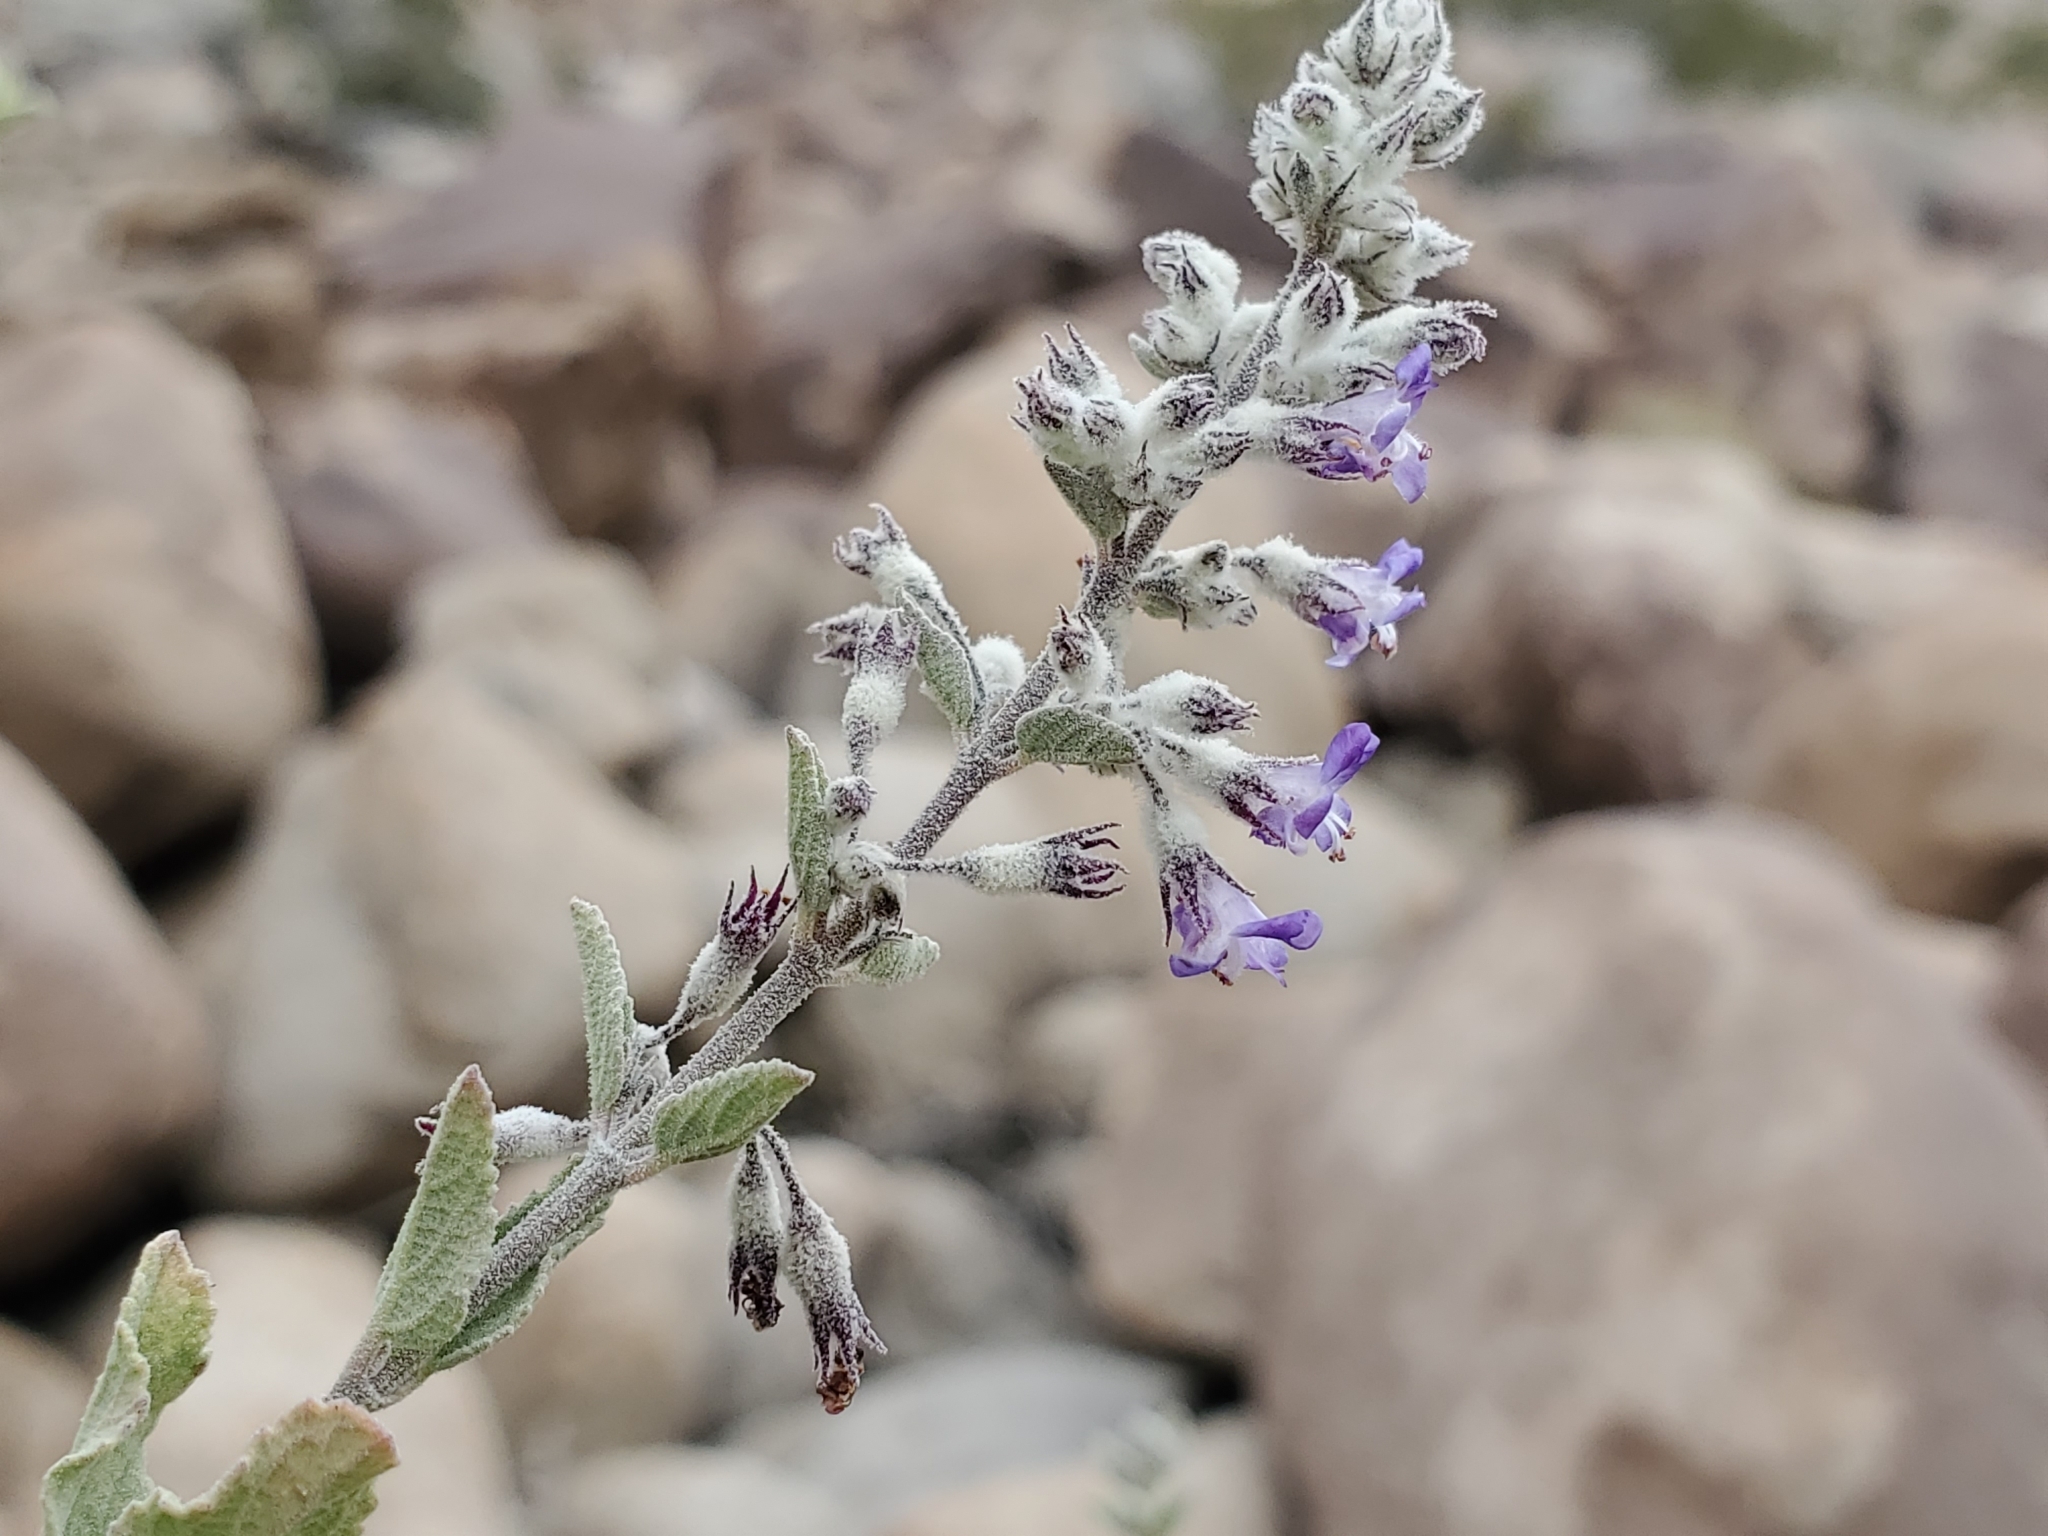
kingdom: Plantae
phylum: Tracheophyta
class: Magnoliopsida
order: Lamiales
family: Lamiaceae
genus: Condea
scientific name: Condea emoryi
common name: Chia
